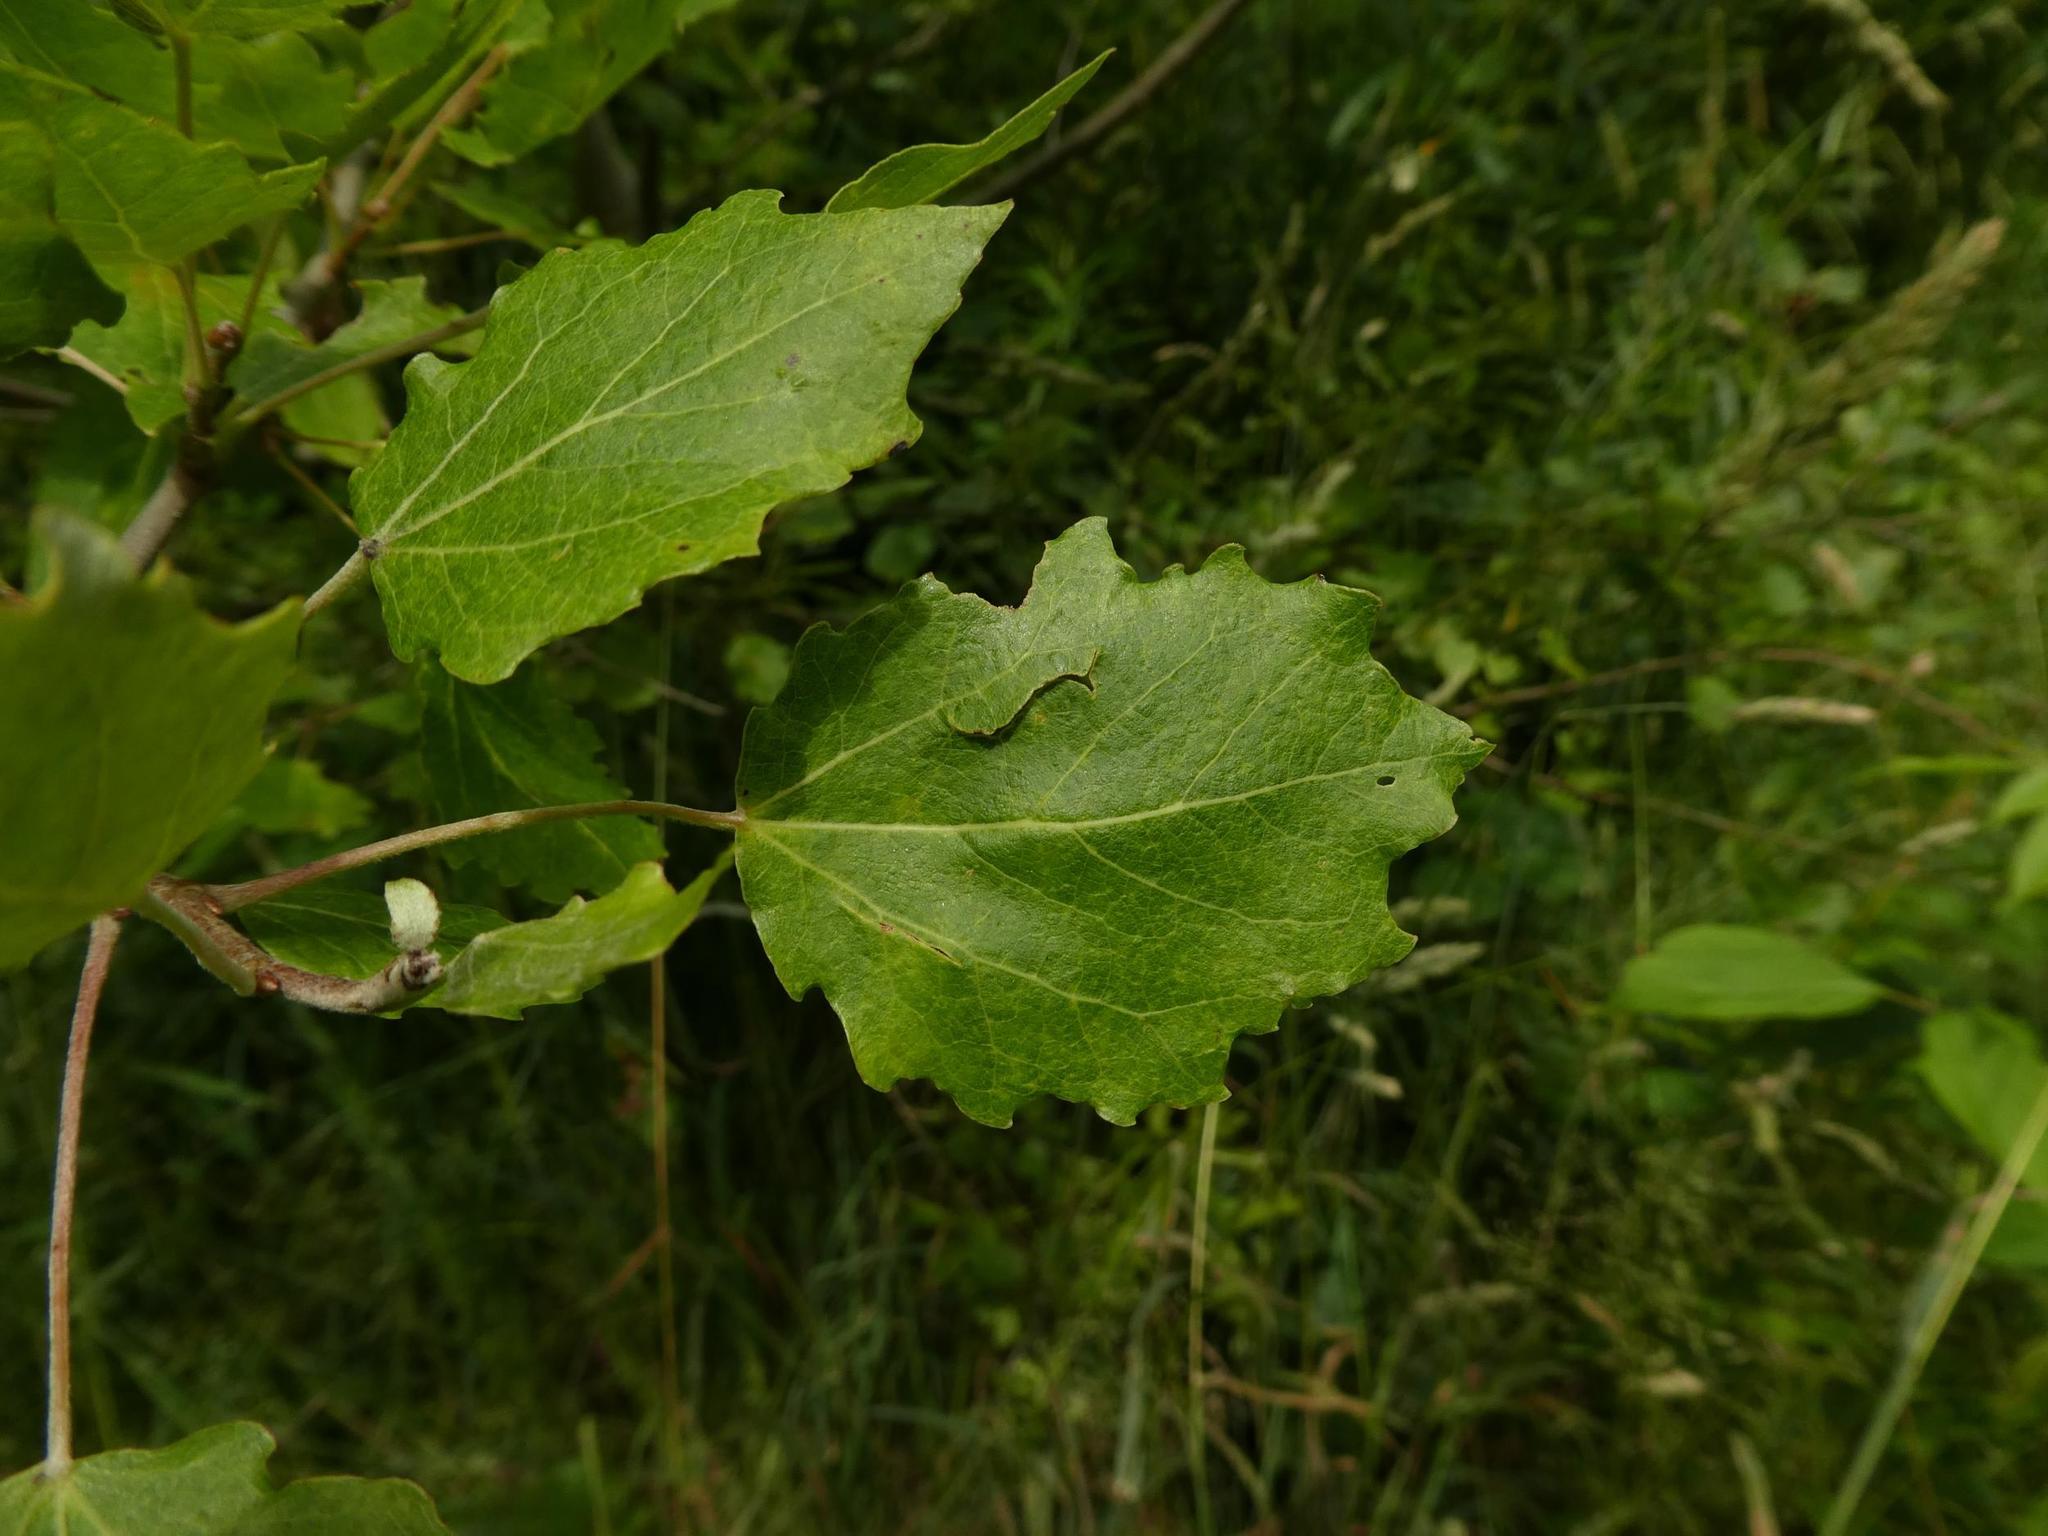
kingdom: Plantae
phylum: Tracheophyta
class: Magnoliopsida
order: Malpighiales
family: Salicaceae
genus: Populus
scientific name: Populus tremula
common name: European aspen
